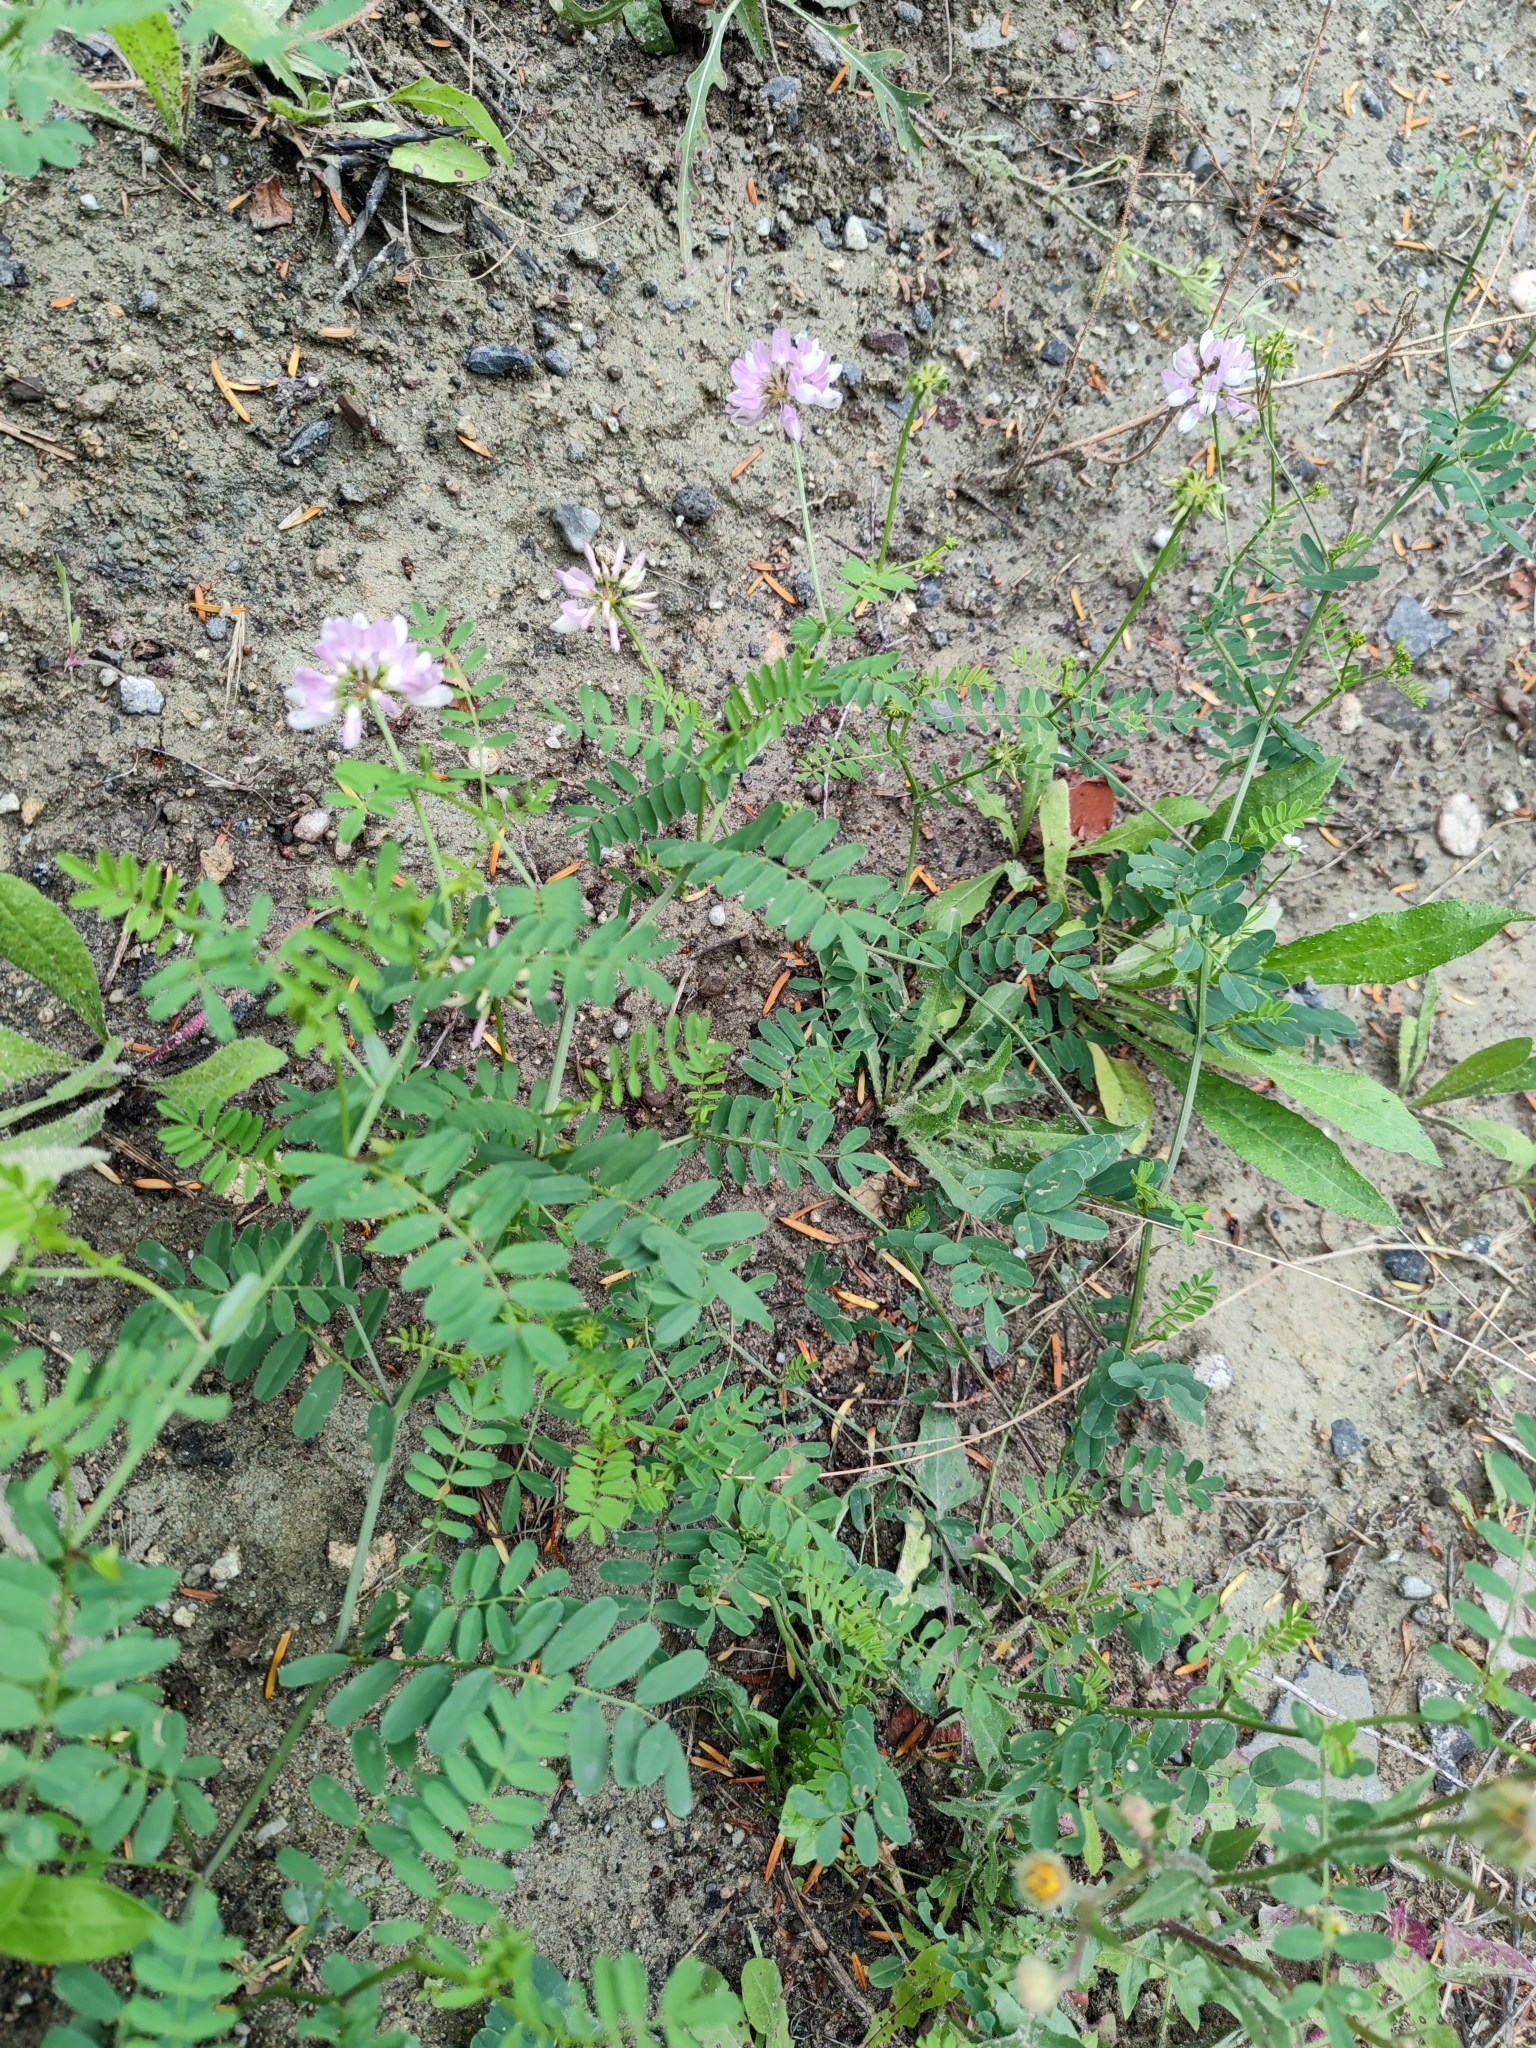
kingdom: Plantae
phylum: Tracheophyta
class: Magnoliopsida
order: Fabales
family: Fabaceae
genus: Coronilla
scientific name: Coronilla varia
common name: Crownvetch
